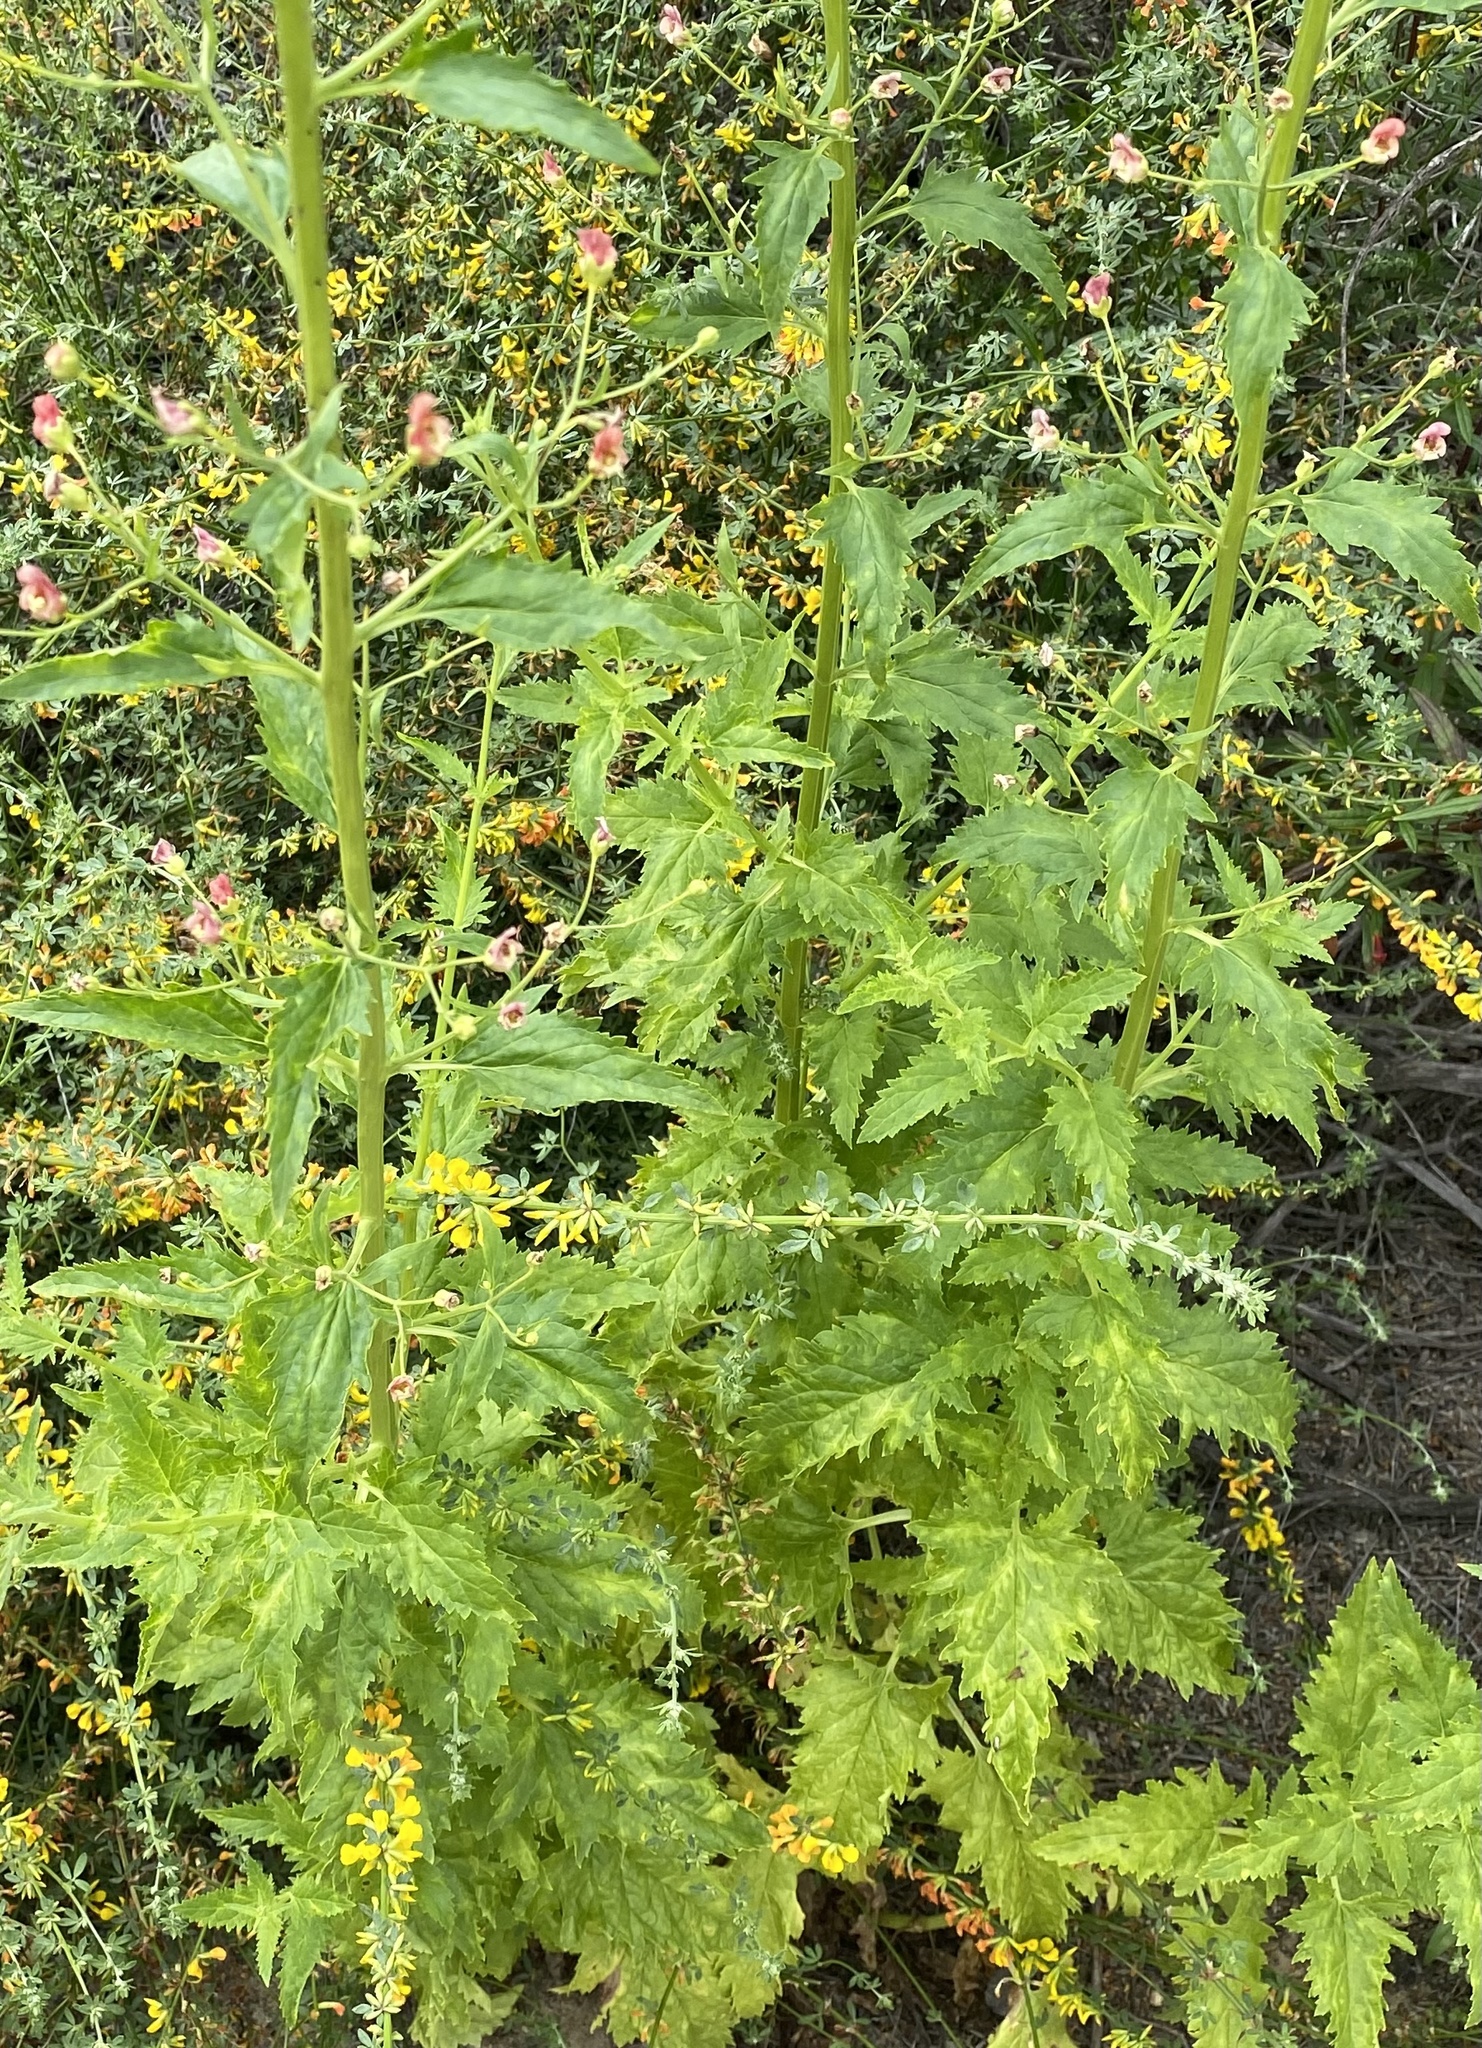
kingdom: Plantae
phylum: Tracheophyta
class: Magnoliopsida
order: Lamiales
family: Scrophulariaceae
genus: Scrophularia
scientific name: Scrophularia californica
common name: California figwort
